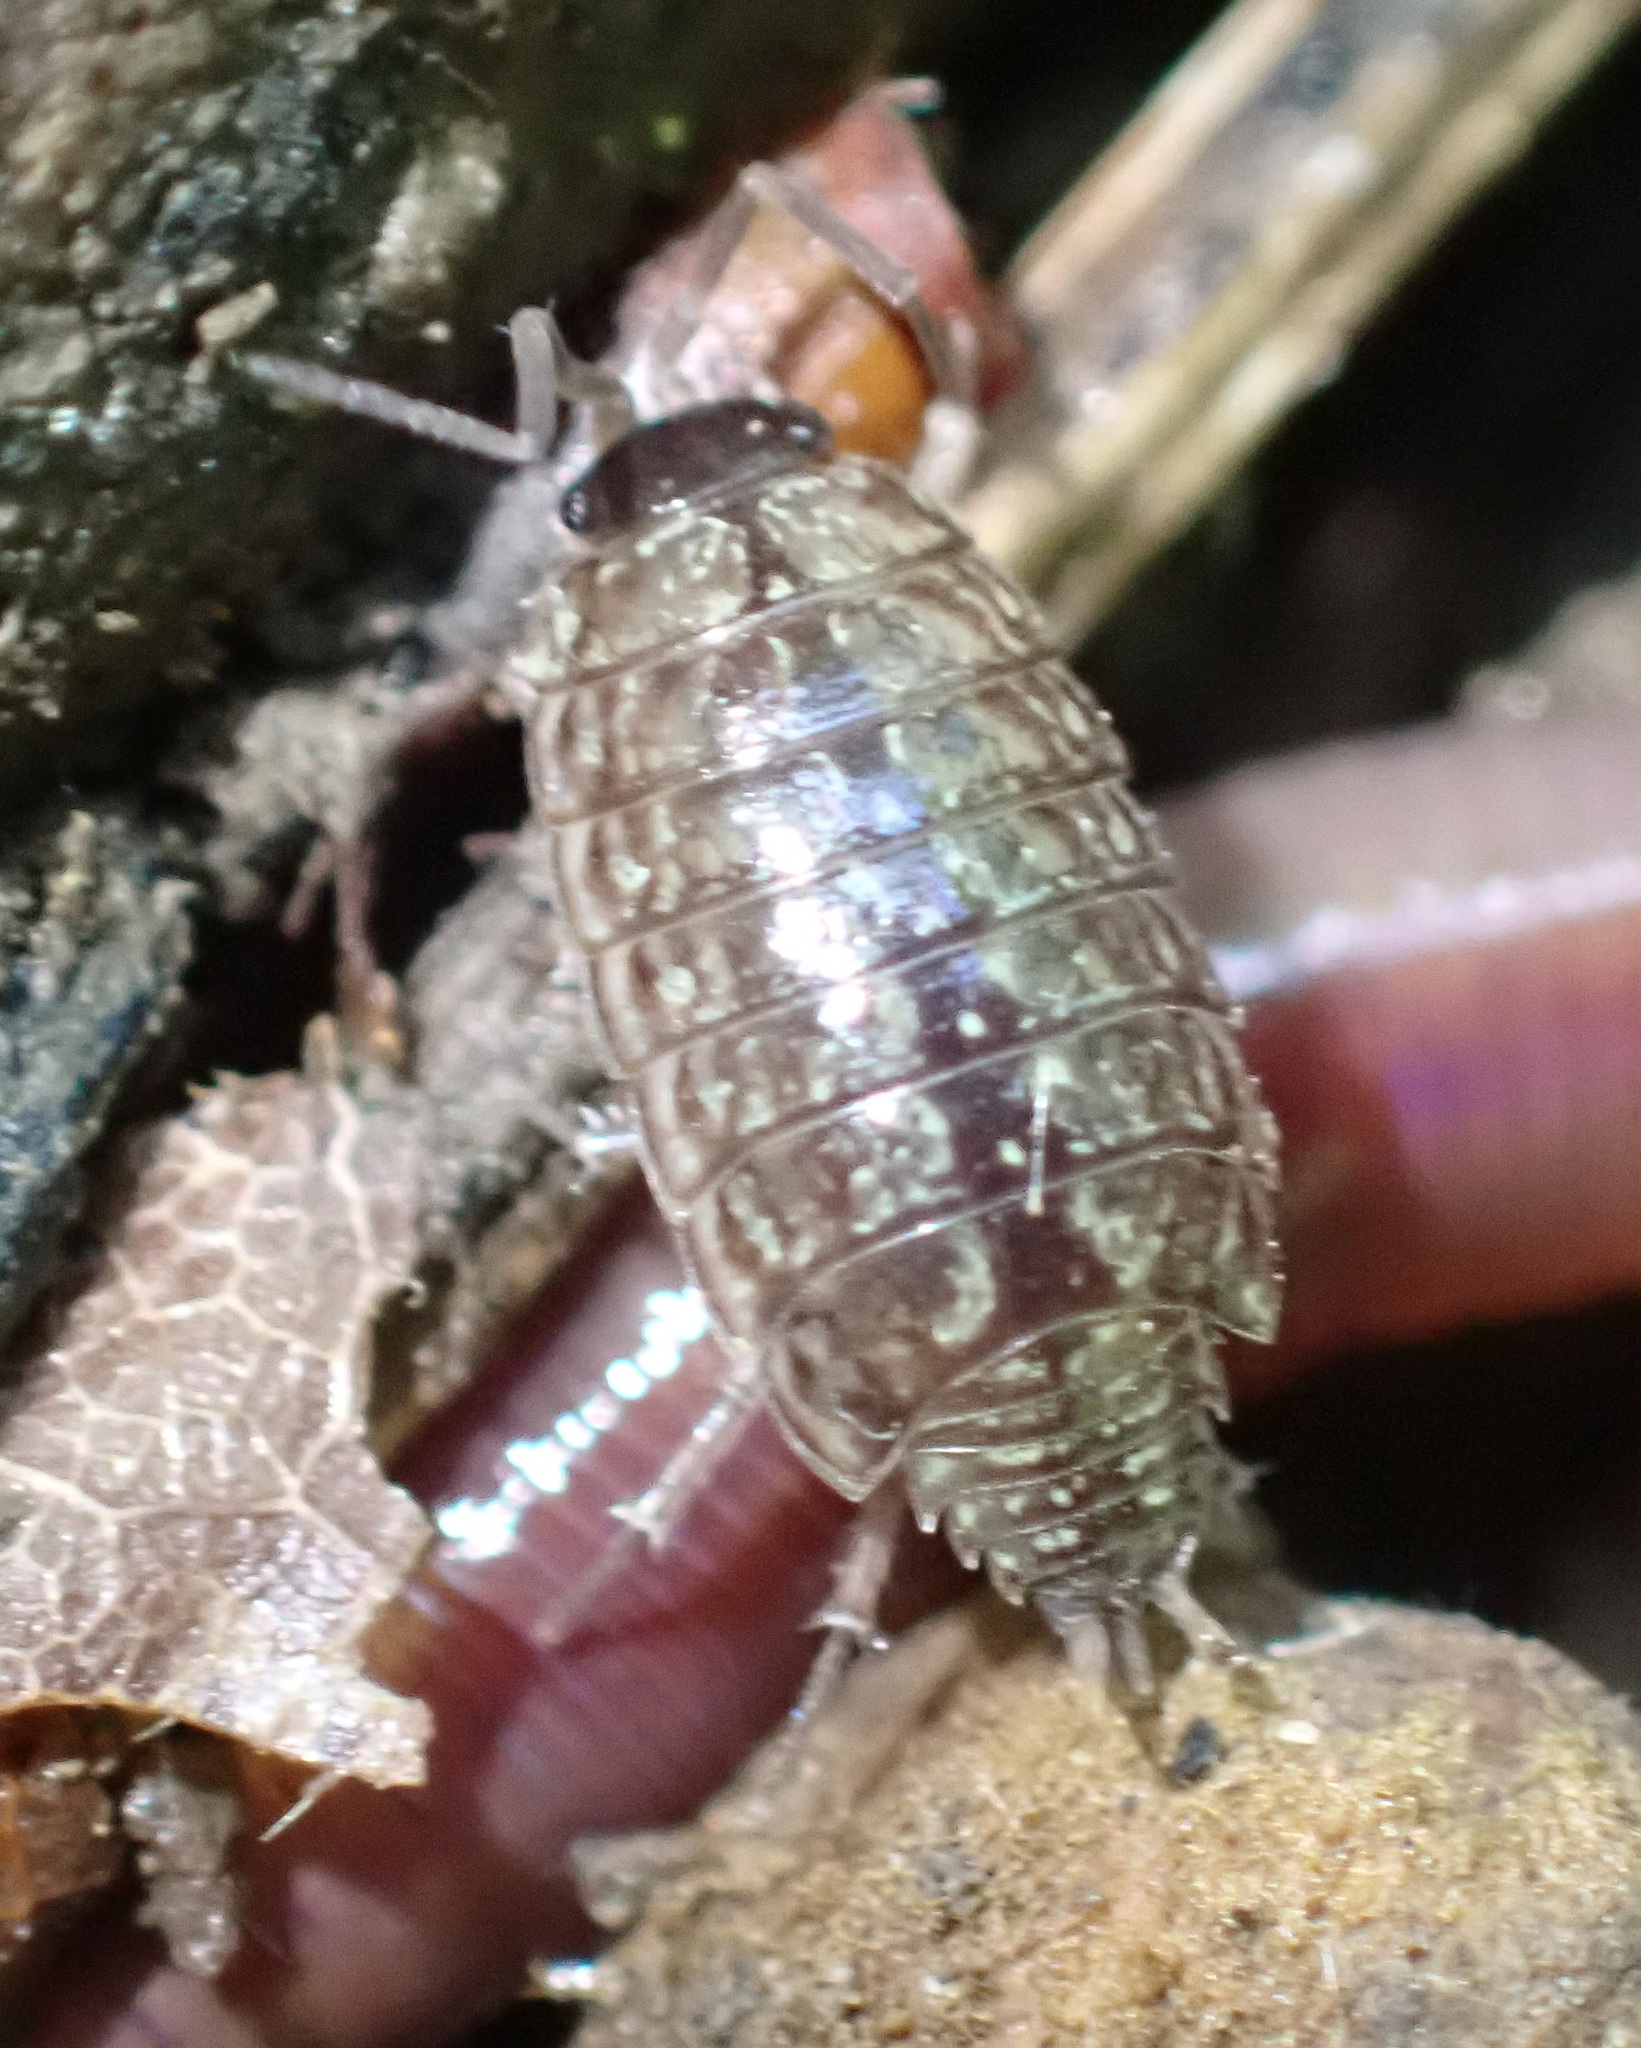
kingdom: Animalia
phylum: Arthropoda
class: Malacostraca
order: Isopoda
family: Philosciidae
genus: Philoscia
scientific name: Philoscia muscorum
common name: Common striped woodlouse
